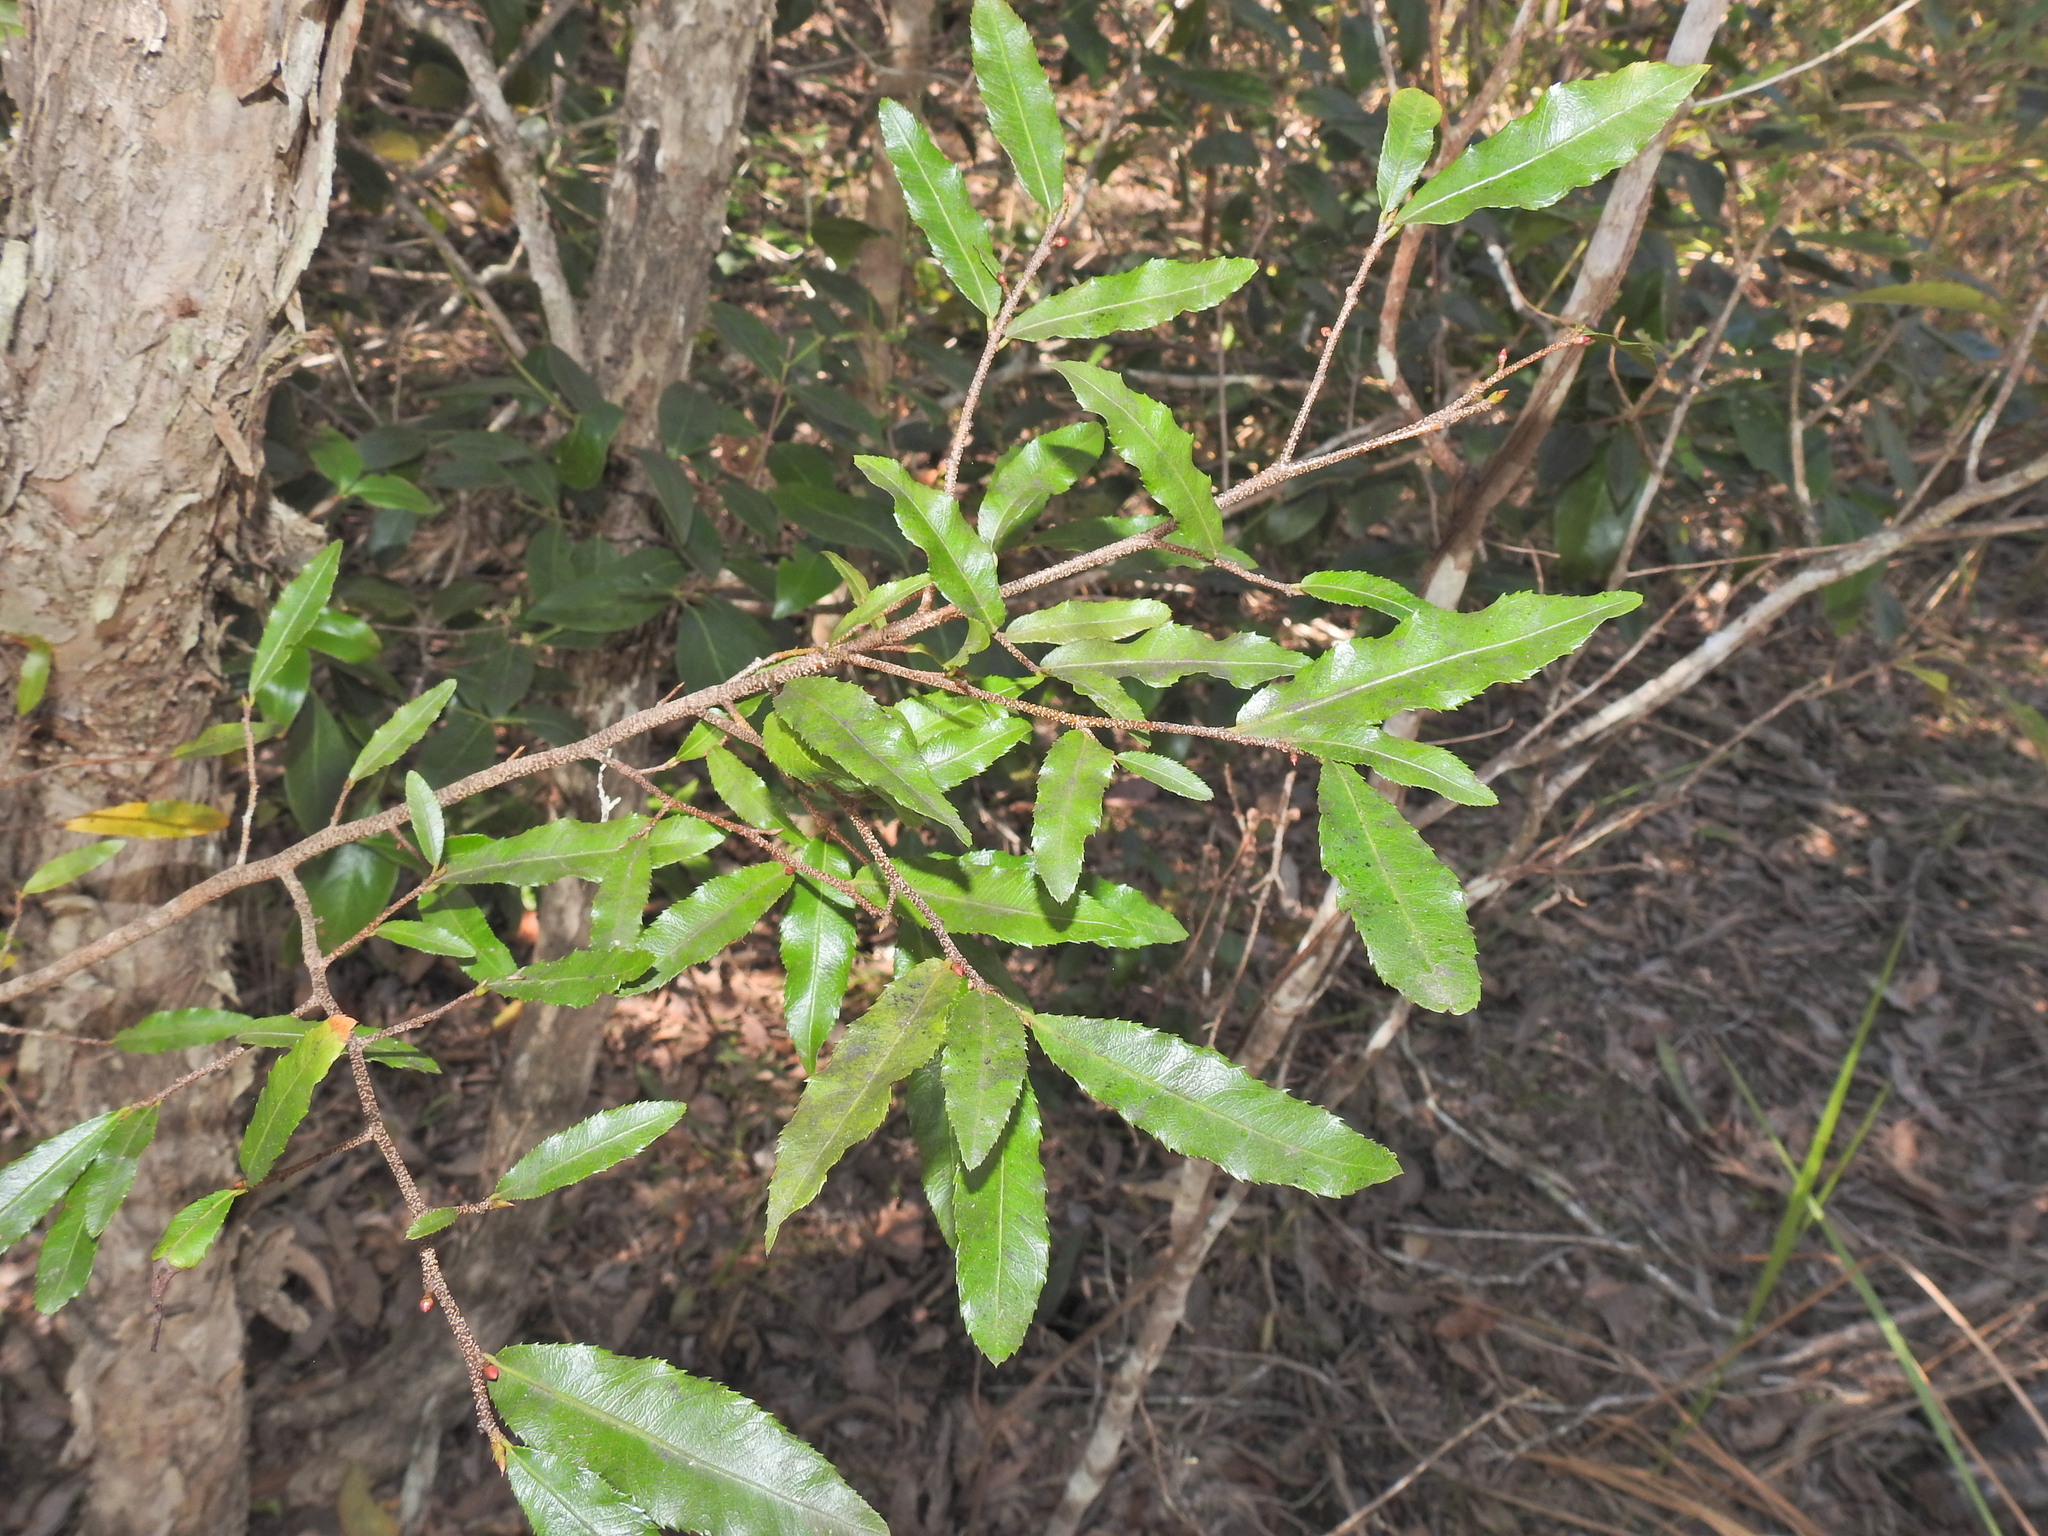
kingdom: Plantae
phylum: Tracheophyta
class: Magnoliopsida
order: Malpighiales
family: Ochnaceae
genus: Ochna
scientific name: Ochna serrulata
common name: Mickey mouse plant
